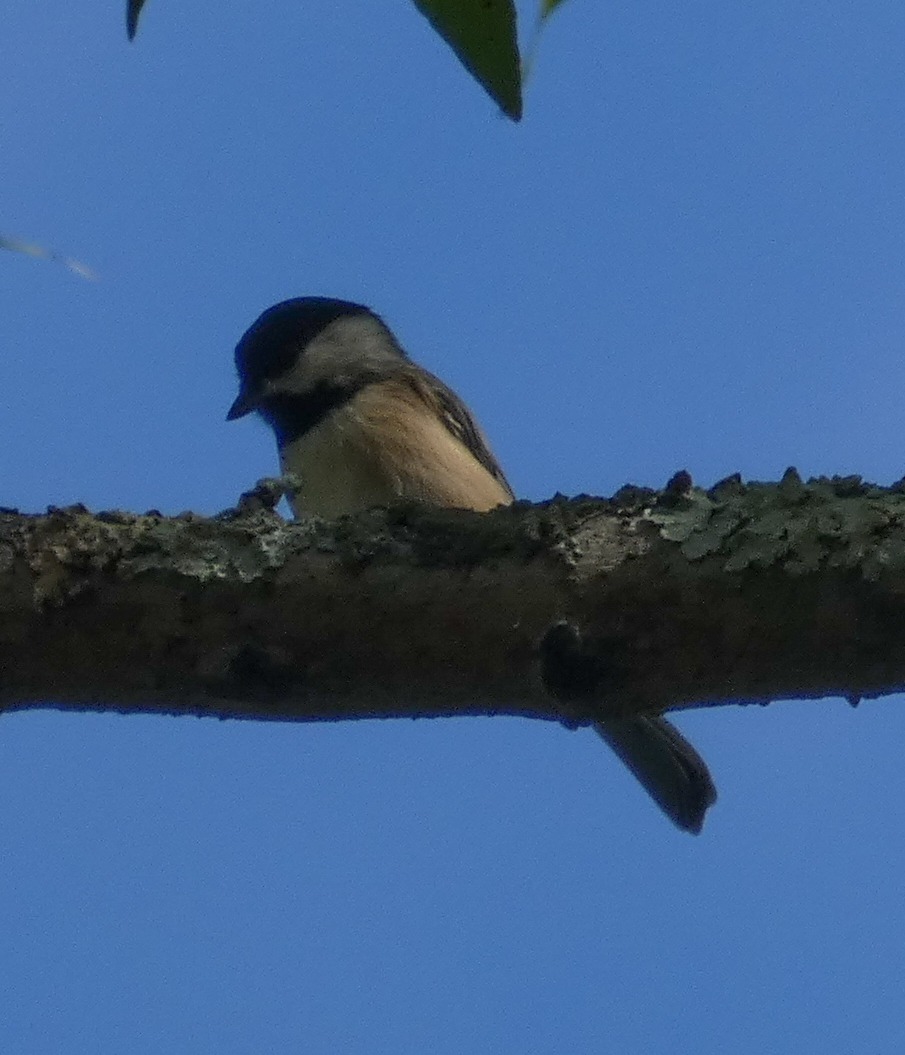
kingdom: Animalia
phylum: Chordata
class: Aves
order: Passeriformes
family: Paridae
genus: Poecile
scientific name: Poecile carolinensis
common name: Carolina chickadee
